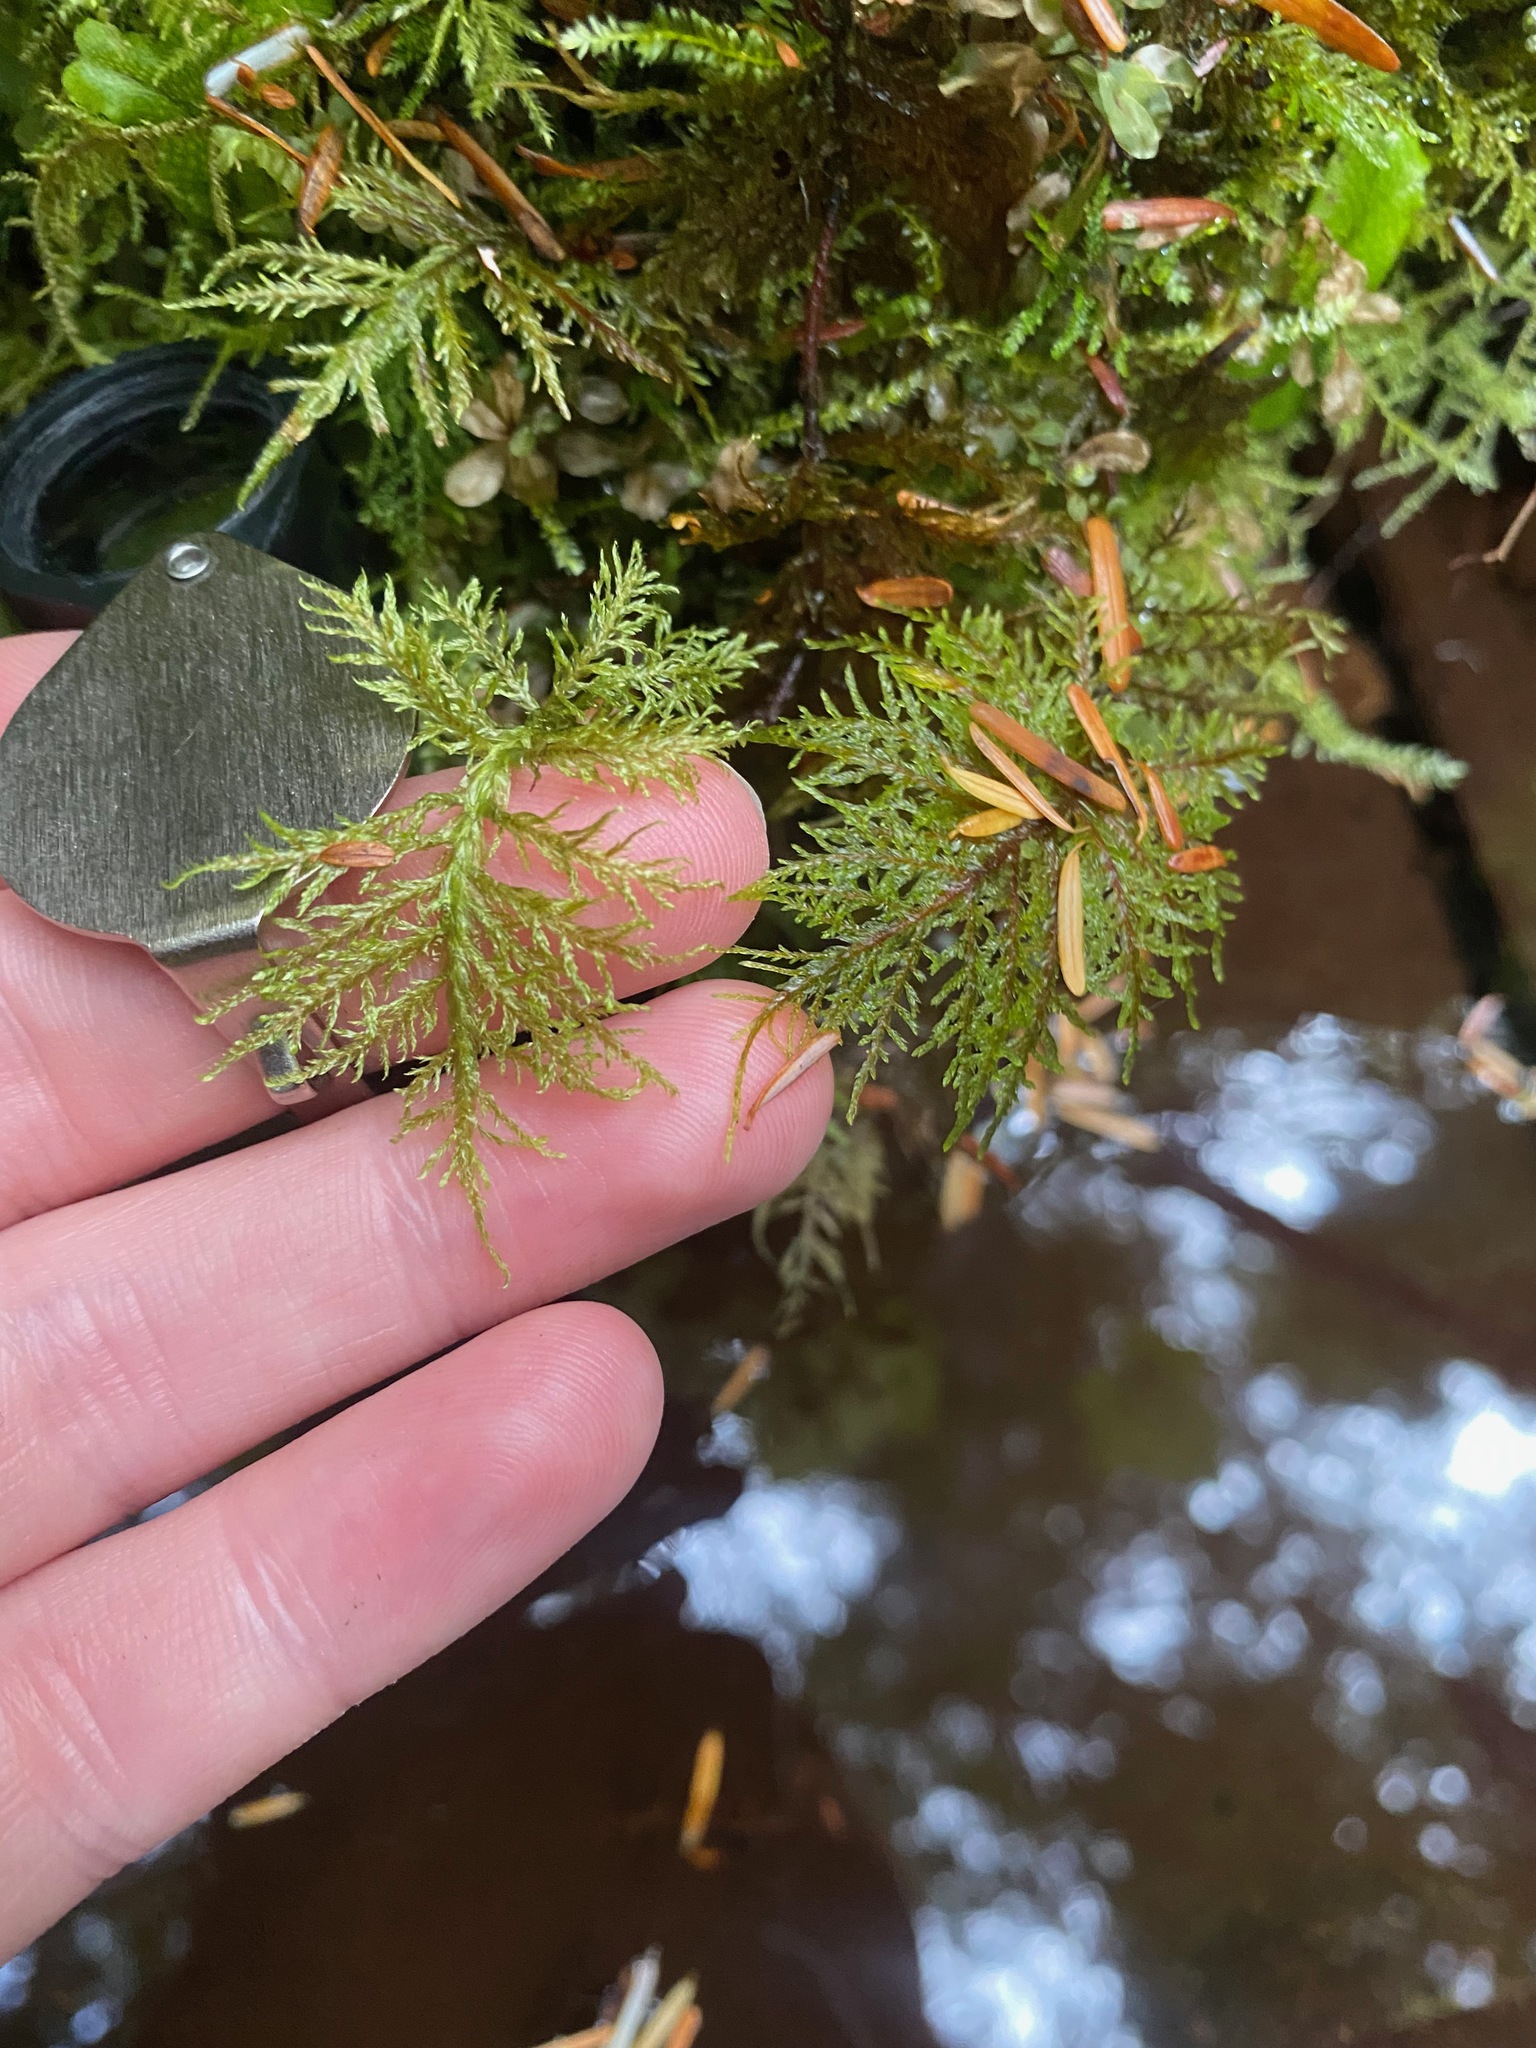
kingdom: Plantae
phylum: Bryophyta
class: Bryopsida
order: Hypnales
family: Hylocomiaceae
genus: Hylocomium
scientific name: Hylocomium splendens
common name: Stairstep moss
